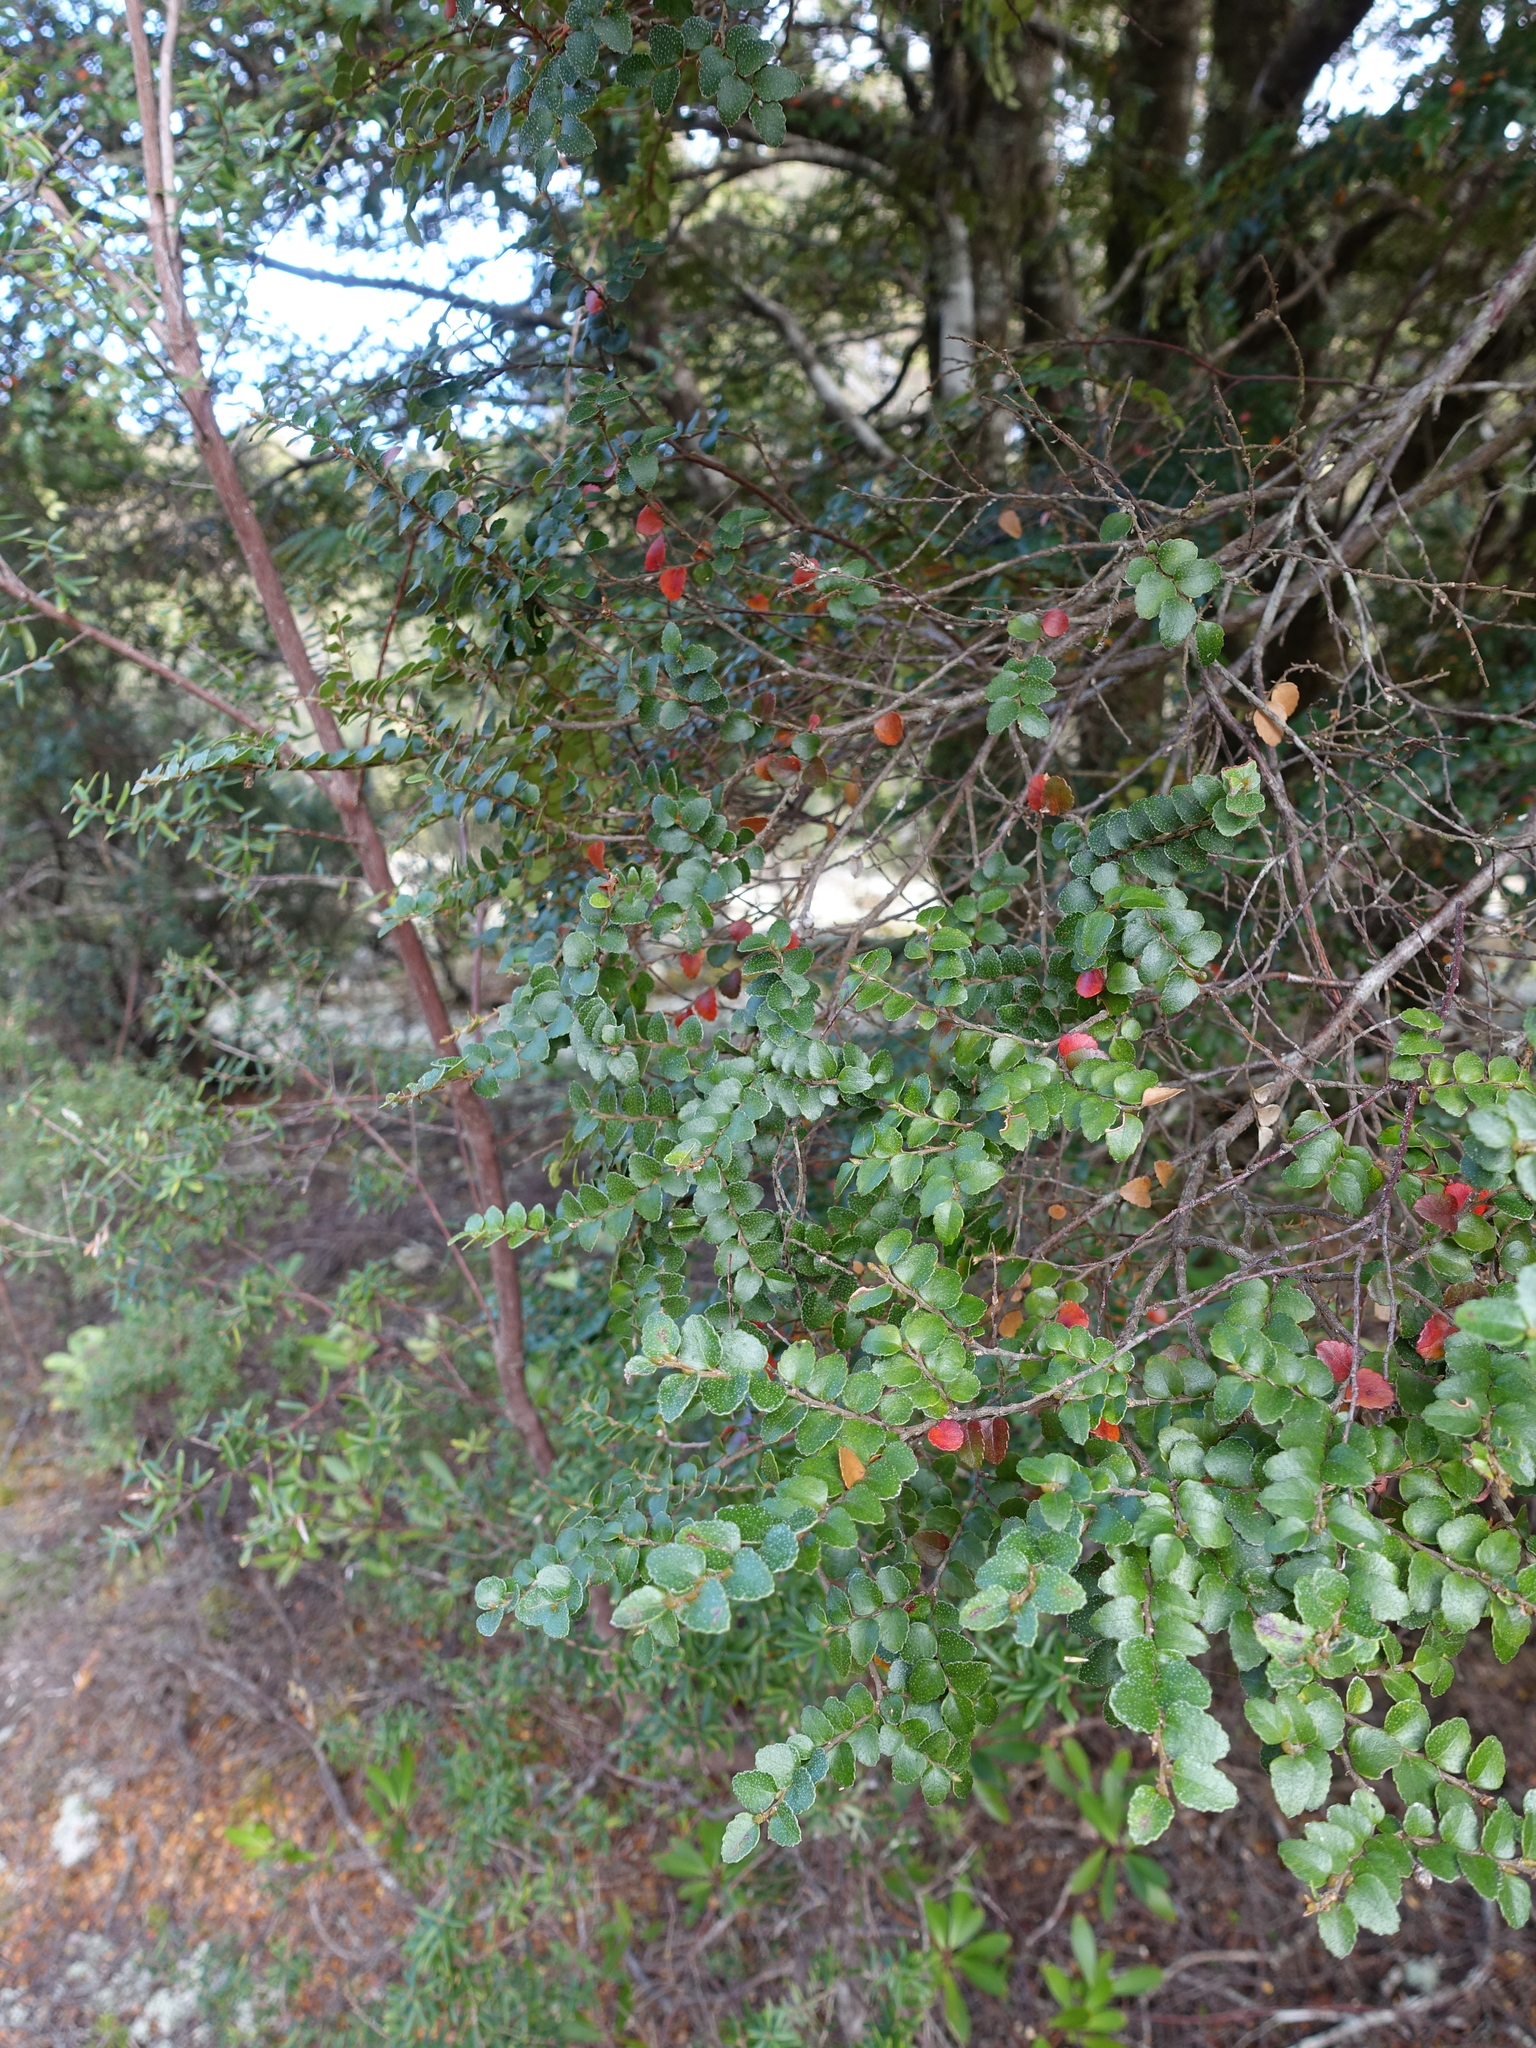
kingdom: Plantae
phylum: Tracheophyta
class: Magnoliopsida
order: Fagales
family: Nothofagaceae
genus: Nothofagus
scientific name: Nothofagus cunninghamii
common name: Myrtle beech
